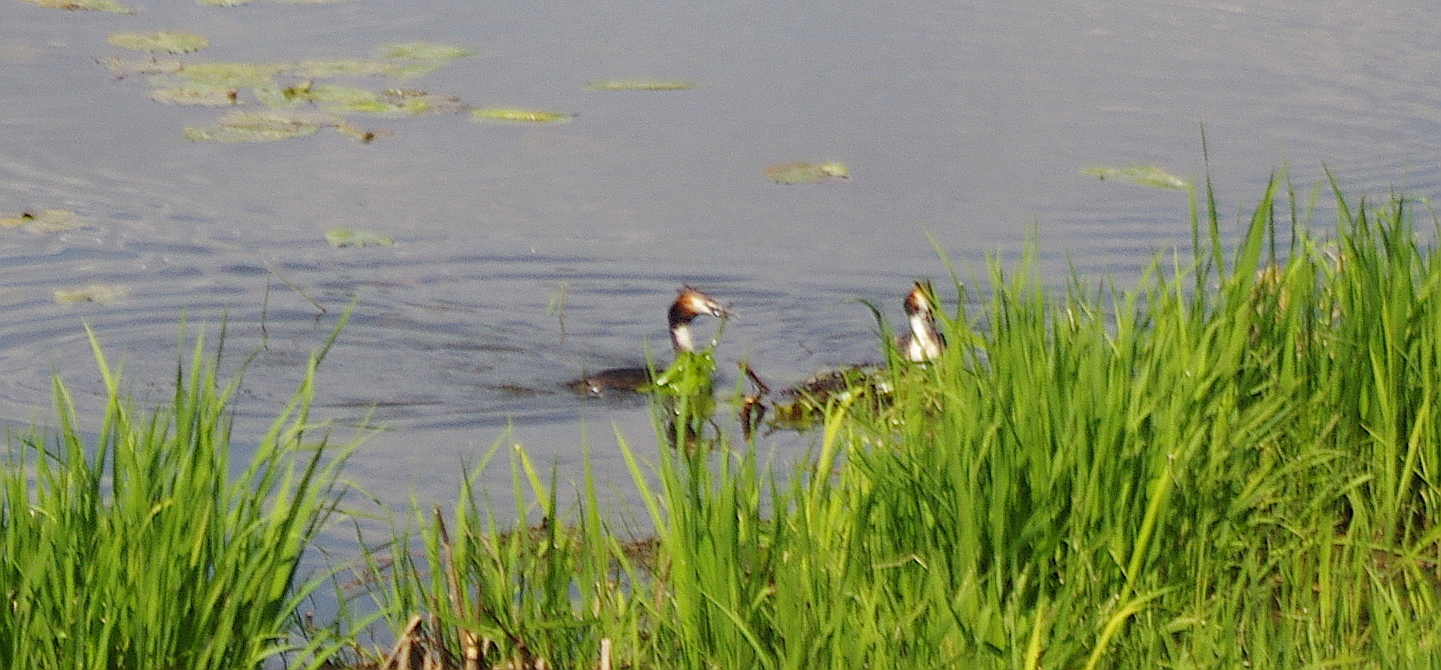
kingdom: Animalia
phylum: Chordata
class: Aves
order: Podicipediformes
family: Podicipedidae
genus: Podiceps
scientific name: Podiceps cristatus
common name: Great crested grebe
